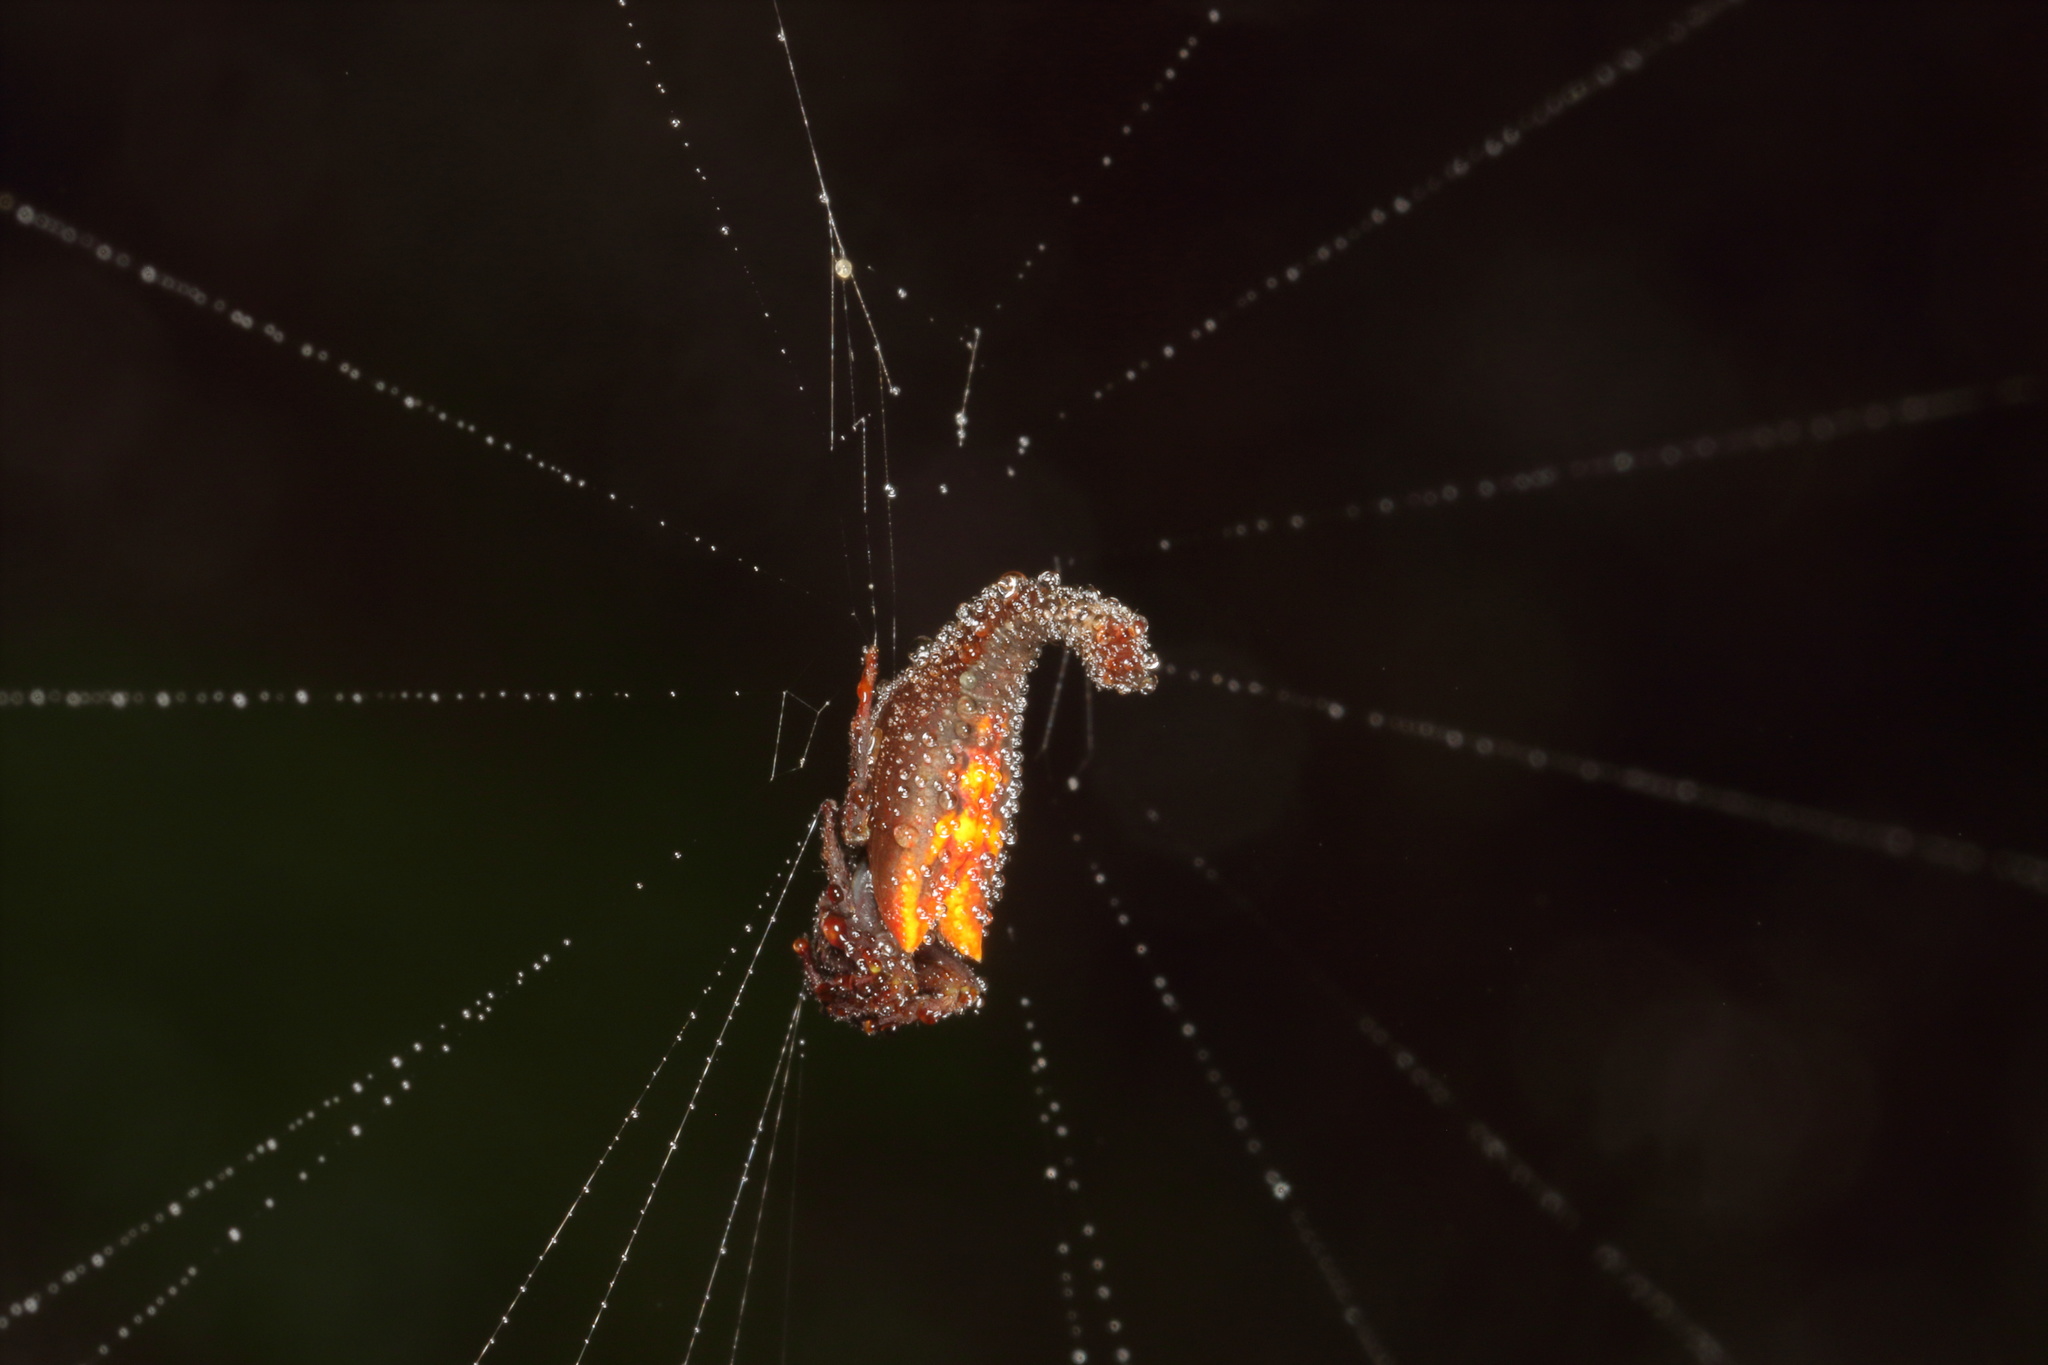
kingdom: Animalia
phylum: Arthropoda
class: Arachnida
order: Araneae
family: Araneidae
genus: Arachnura
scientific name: Arachnura feredayi
